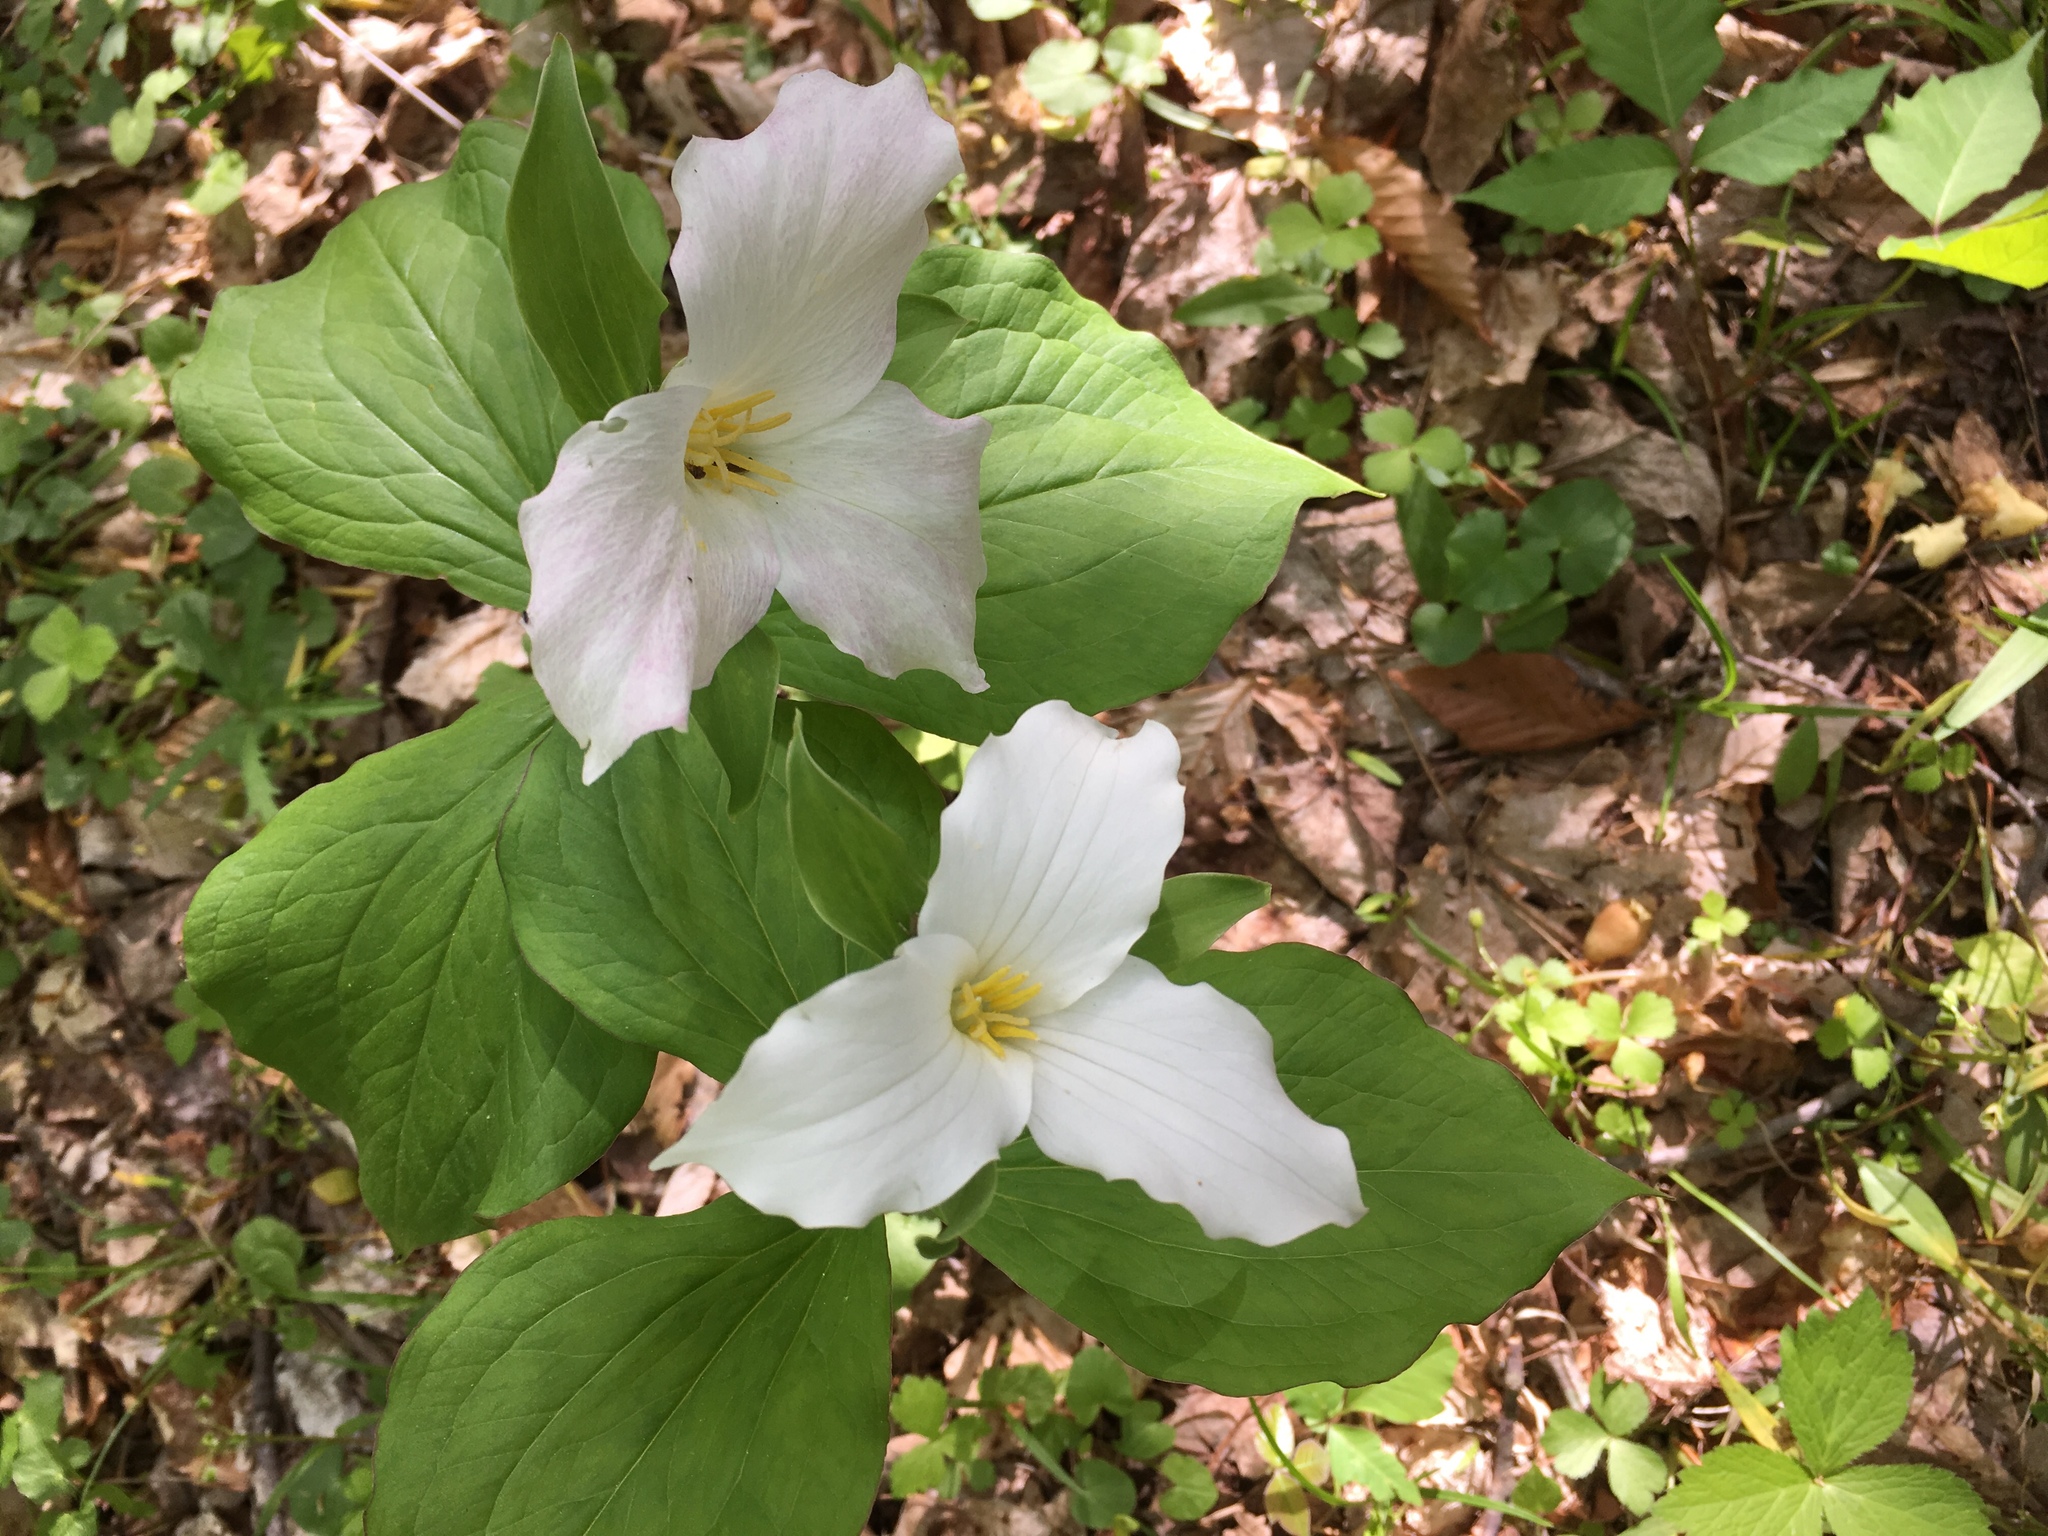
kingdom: Plantae
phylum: Tracheophyta
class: Liliopsida
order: Liliales
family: Melanthiaceae
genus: Trillium
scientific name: Trillium grandiflorum
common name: Great white trillium
